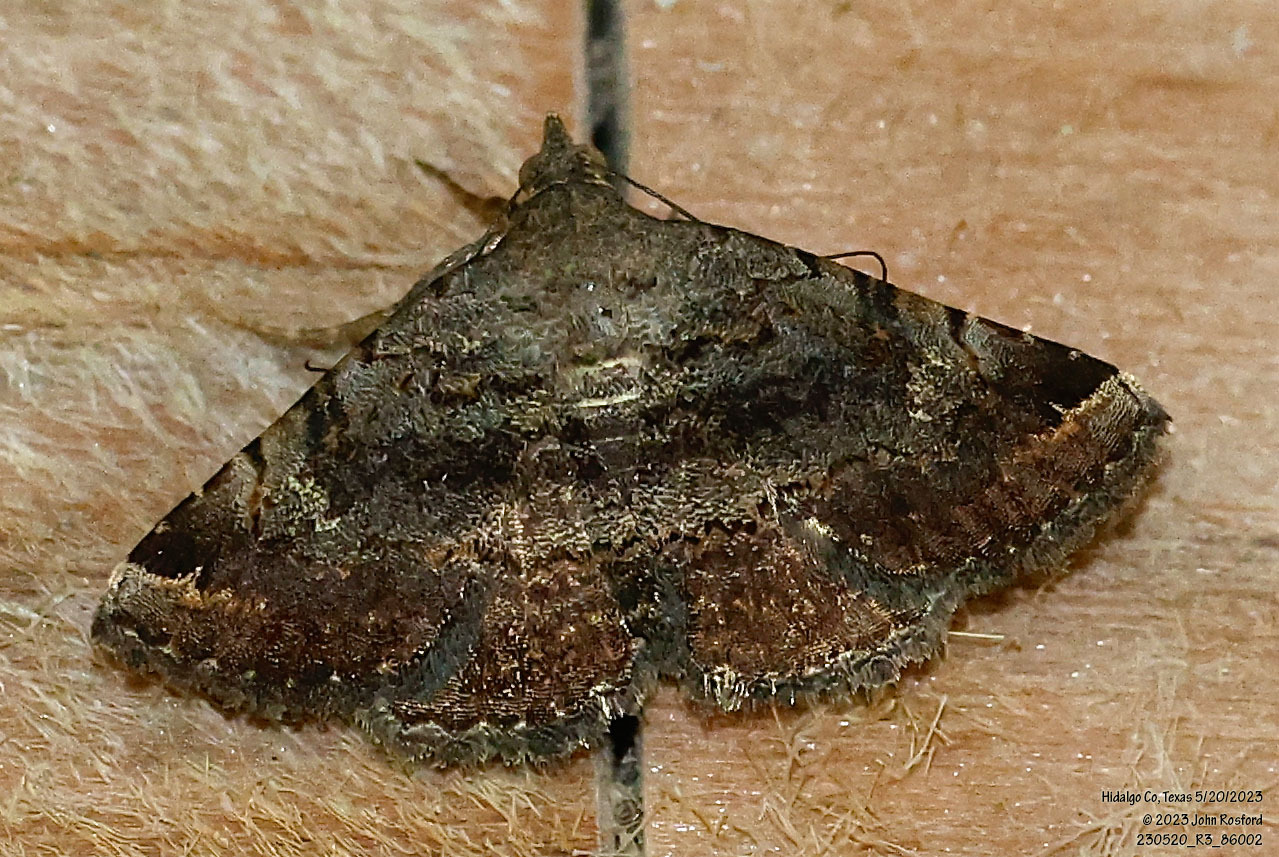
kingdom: Animalia
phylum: Arthropoda
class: Insecta
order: Lepidoptera
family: Erebidae
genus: Toxonprucha
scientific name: Toxonprucha crudelis
